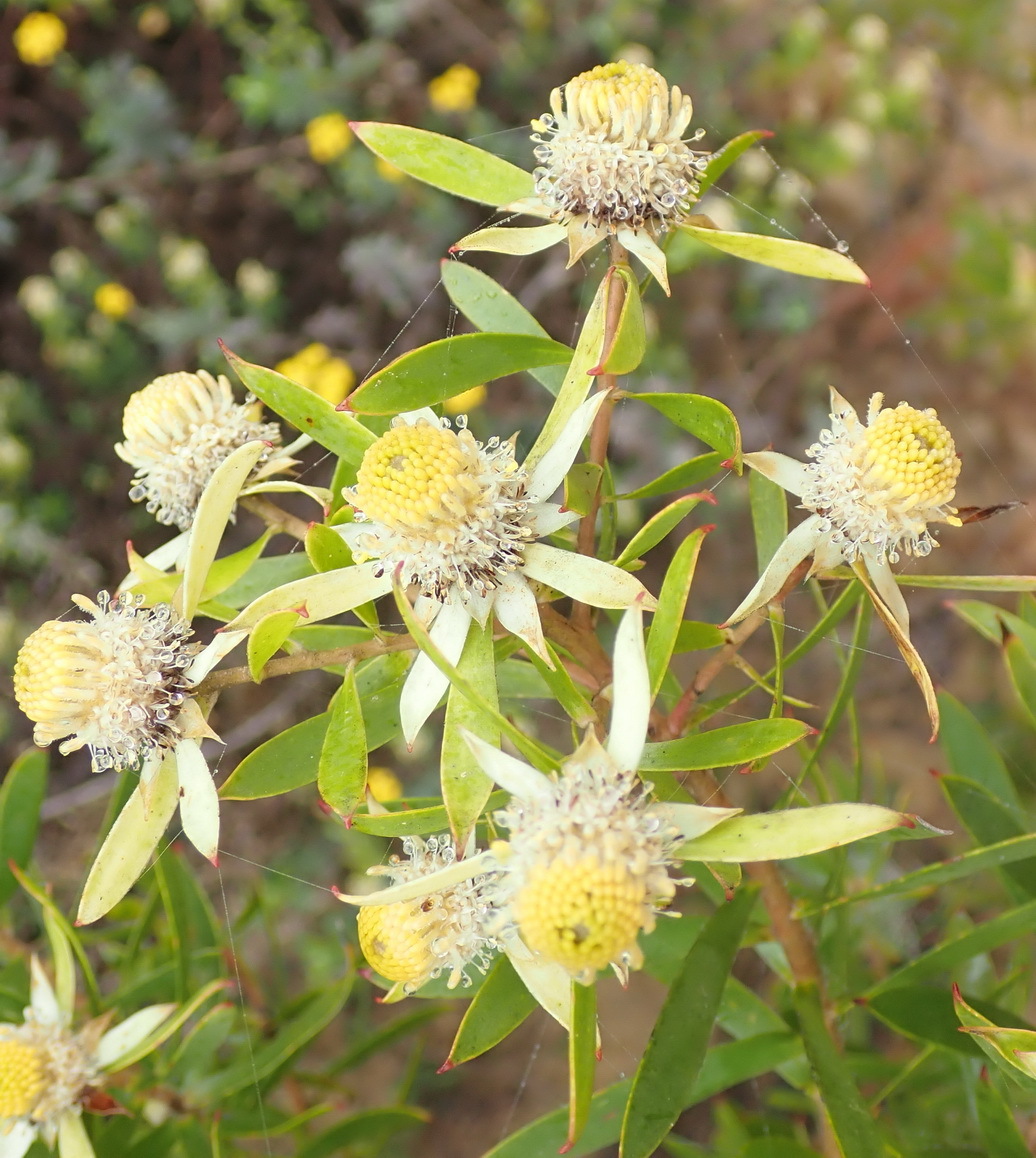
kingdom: Plantae
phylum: Tracheophyta
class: Magnoliopsida
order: Proteales
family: Proteaceae
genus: Leucadendron
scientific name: Leucadendron conicum
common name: Garden route conebush
